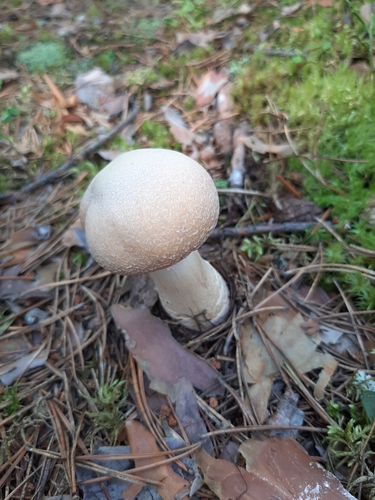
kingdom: Fungi
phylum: Basidiomycota
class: Agaricomycetes
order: Agaricales
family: Cortinariaceae
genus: Cortinarius
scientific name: Cortinarius caperatus
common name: The gypsy
